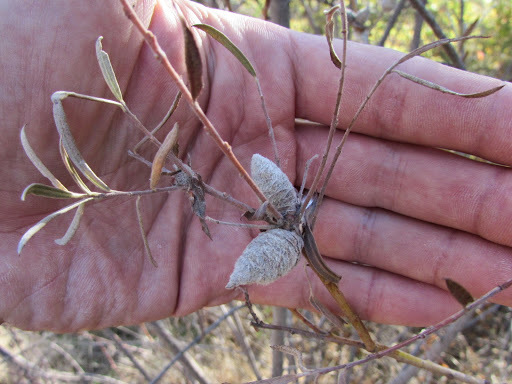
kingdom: Plantae
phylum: Tracheophyta
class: Magnoliopsida
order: Malpighiales
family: Salicaceae
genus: Salix
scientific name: Salix exigua
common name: Coyote willow
